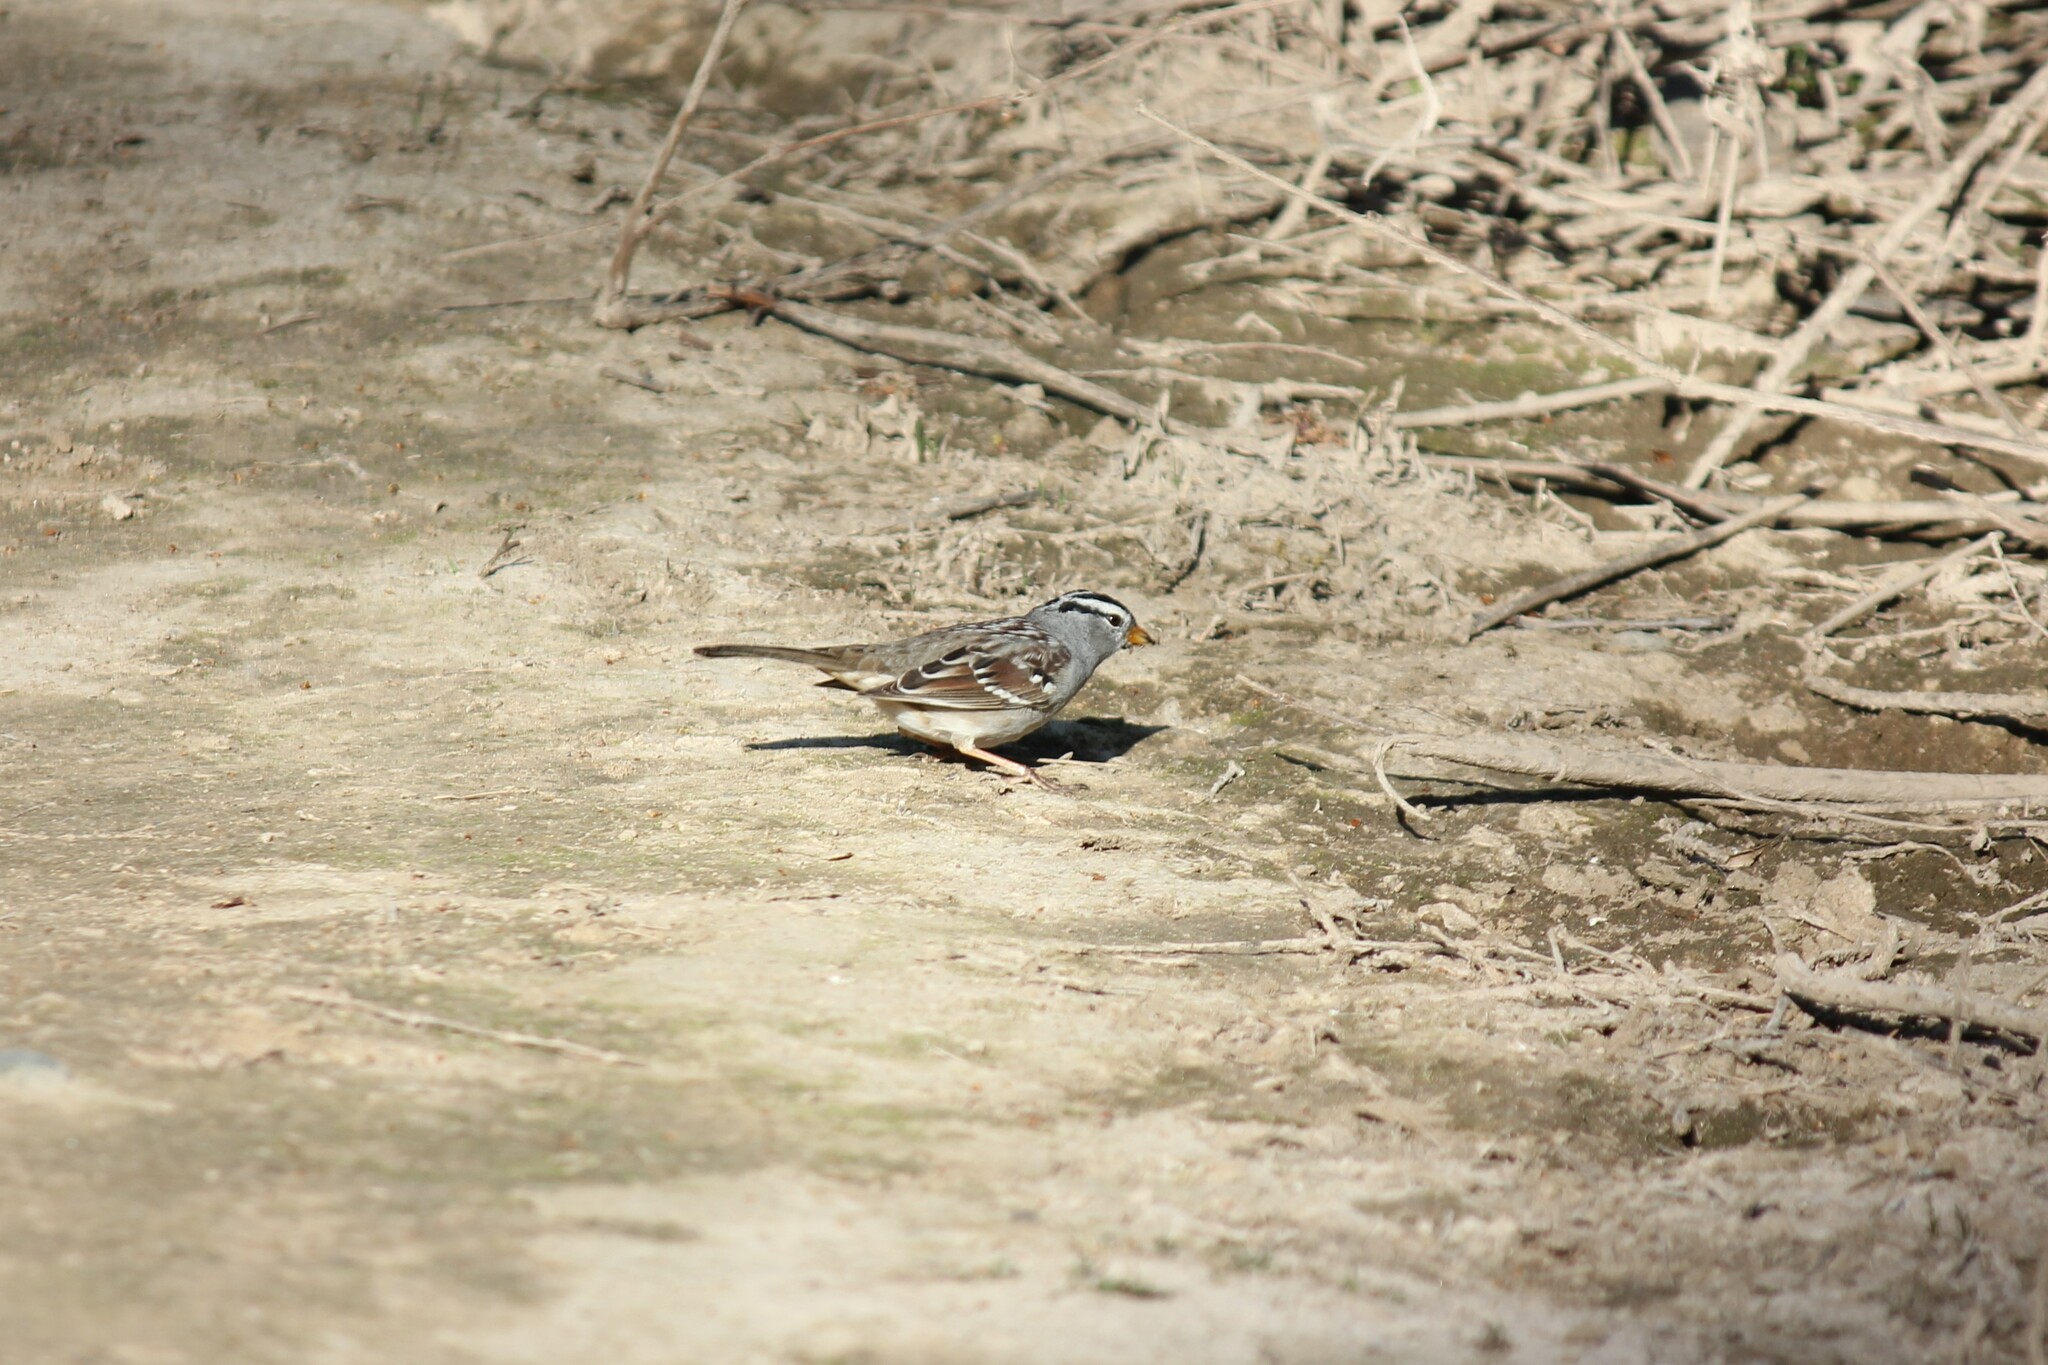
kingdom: Animalia
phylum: Chordata
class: Aves
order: Passeriformes
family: Passerellidae
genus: Zonotrichia
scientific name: Zonotrichia leucophrys
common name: White-crowned sparrow
